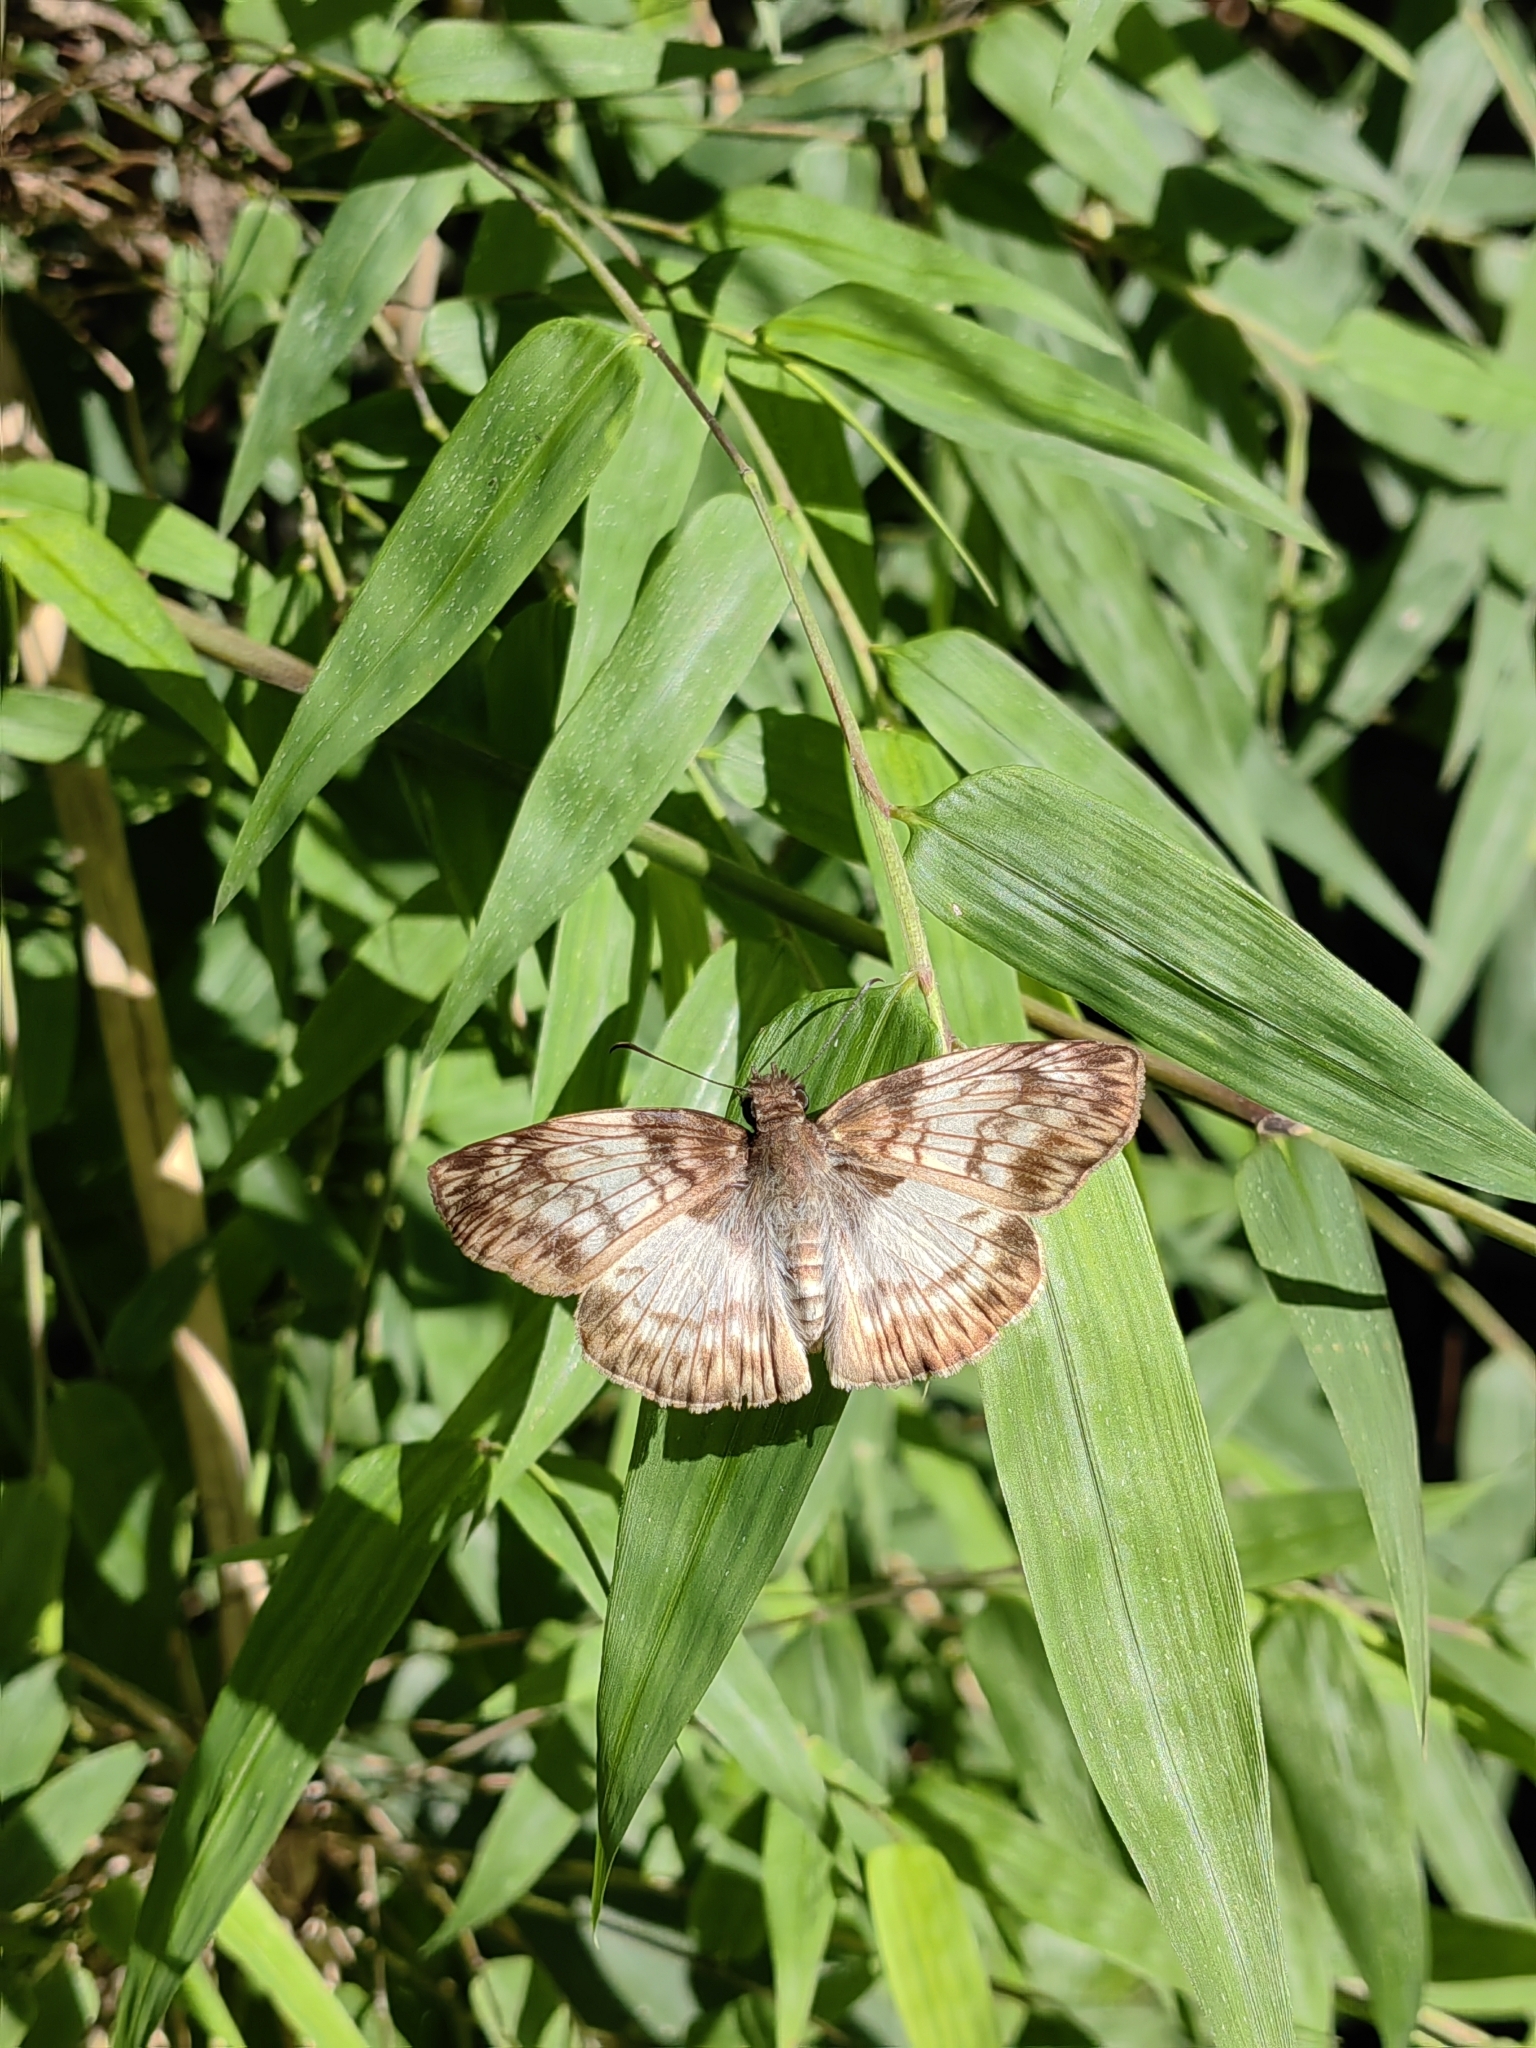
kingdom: Animalia
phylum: Arthropoda
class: Insecta
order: Lepidoptera
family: Hesperiidae
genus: Mylon
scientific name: Mylon maimon
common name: Common mylon
